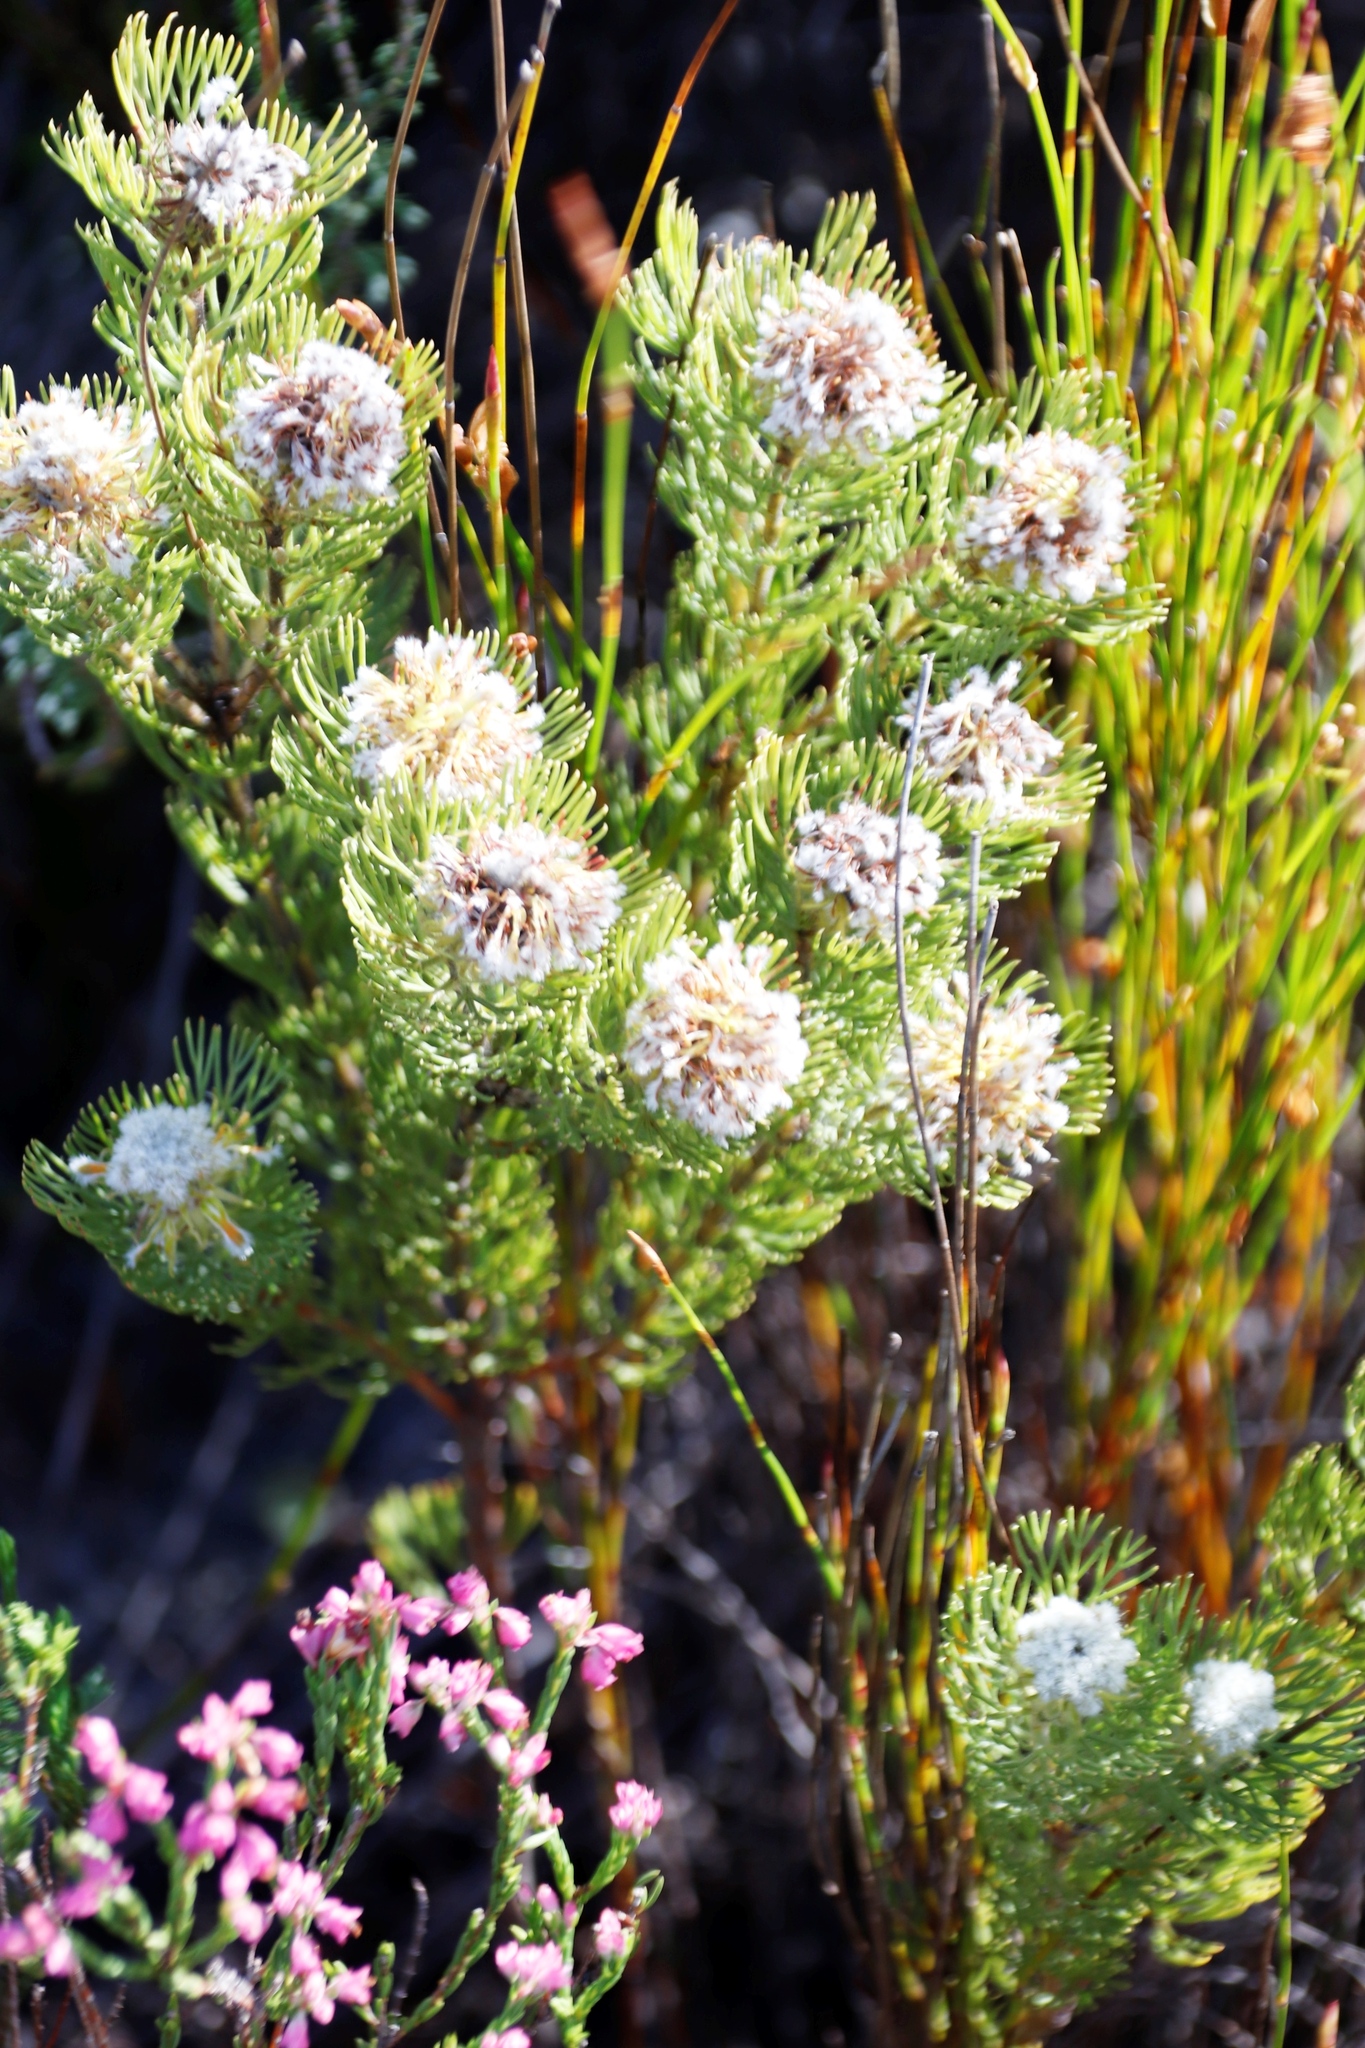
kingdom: Plantae
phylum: Tracheophyta
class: Magnoliopsida
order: Proteales
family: Proteaceae
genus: Serruria
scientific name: Serruria villosa
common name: Golden spiderhead
